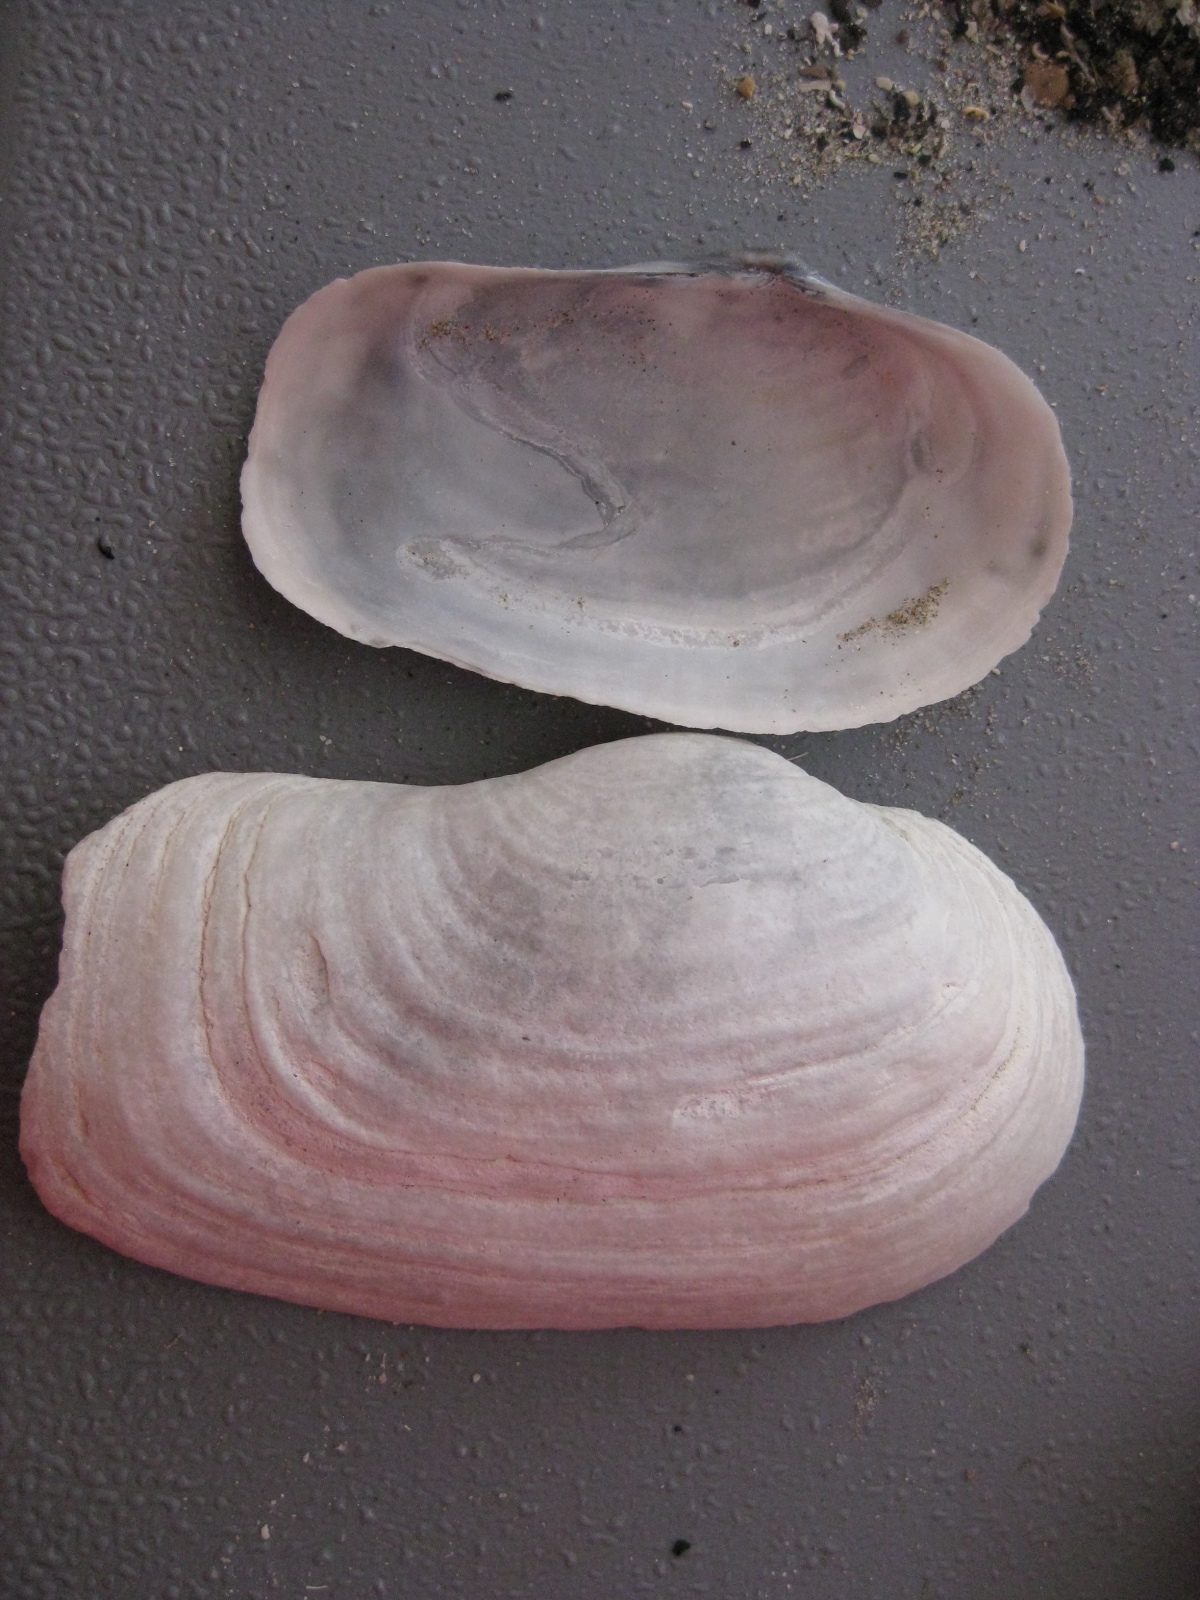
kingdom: Animalia
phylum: Mollusca
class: Bivalvia
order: Adapedonta
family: Hiatellidae
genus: Panopea
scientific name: Panopea zelandica
